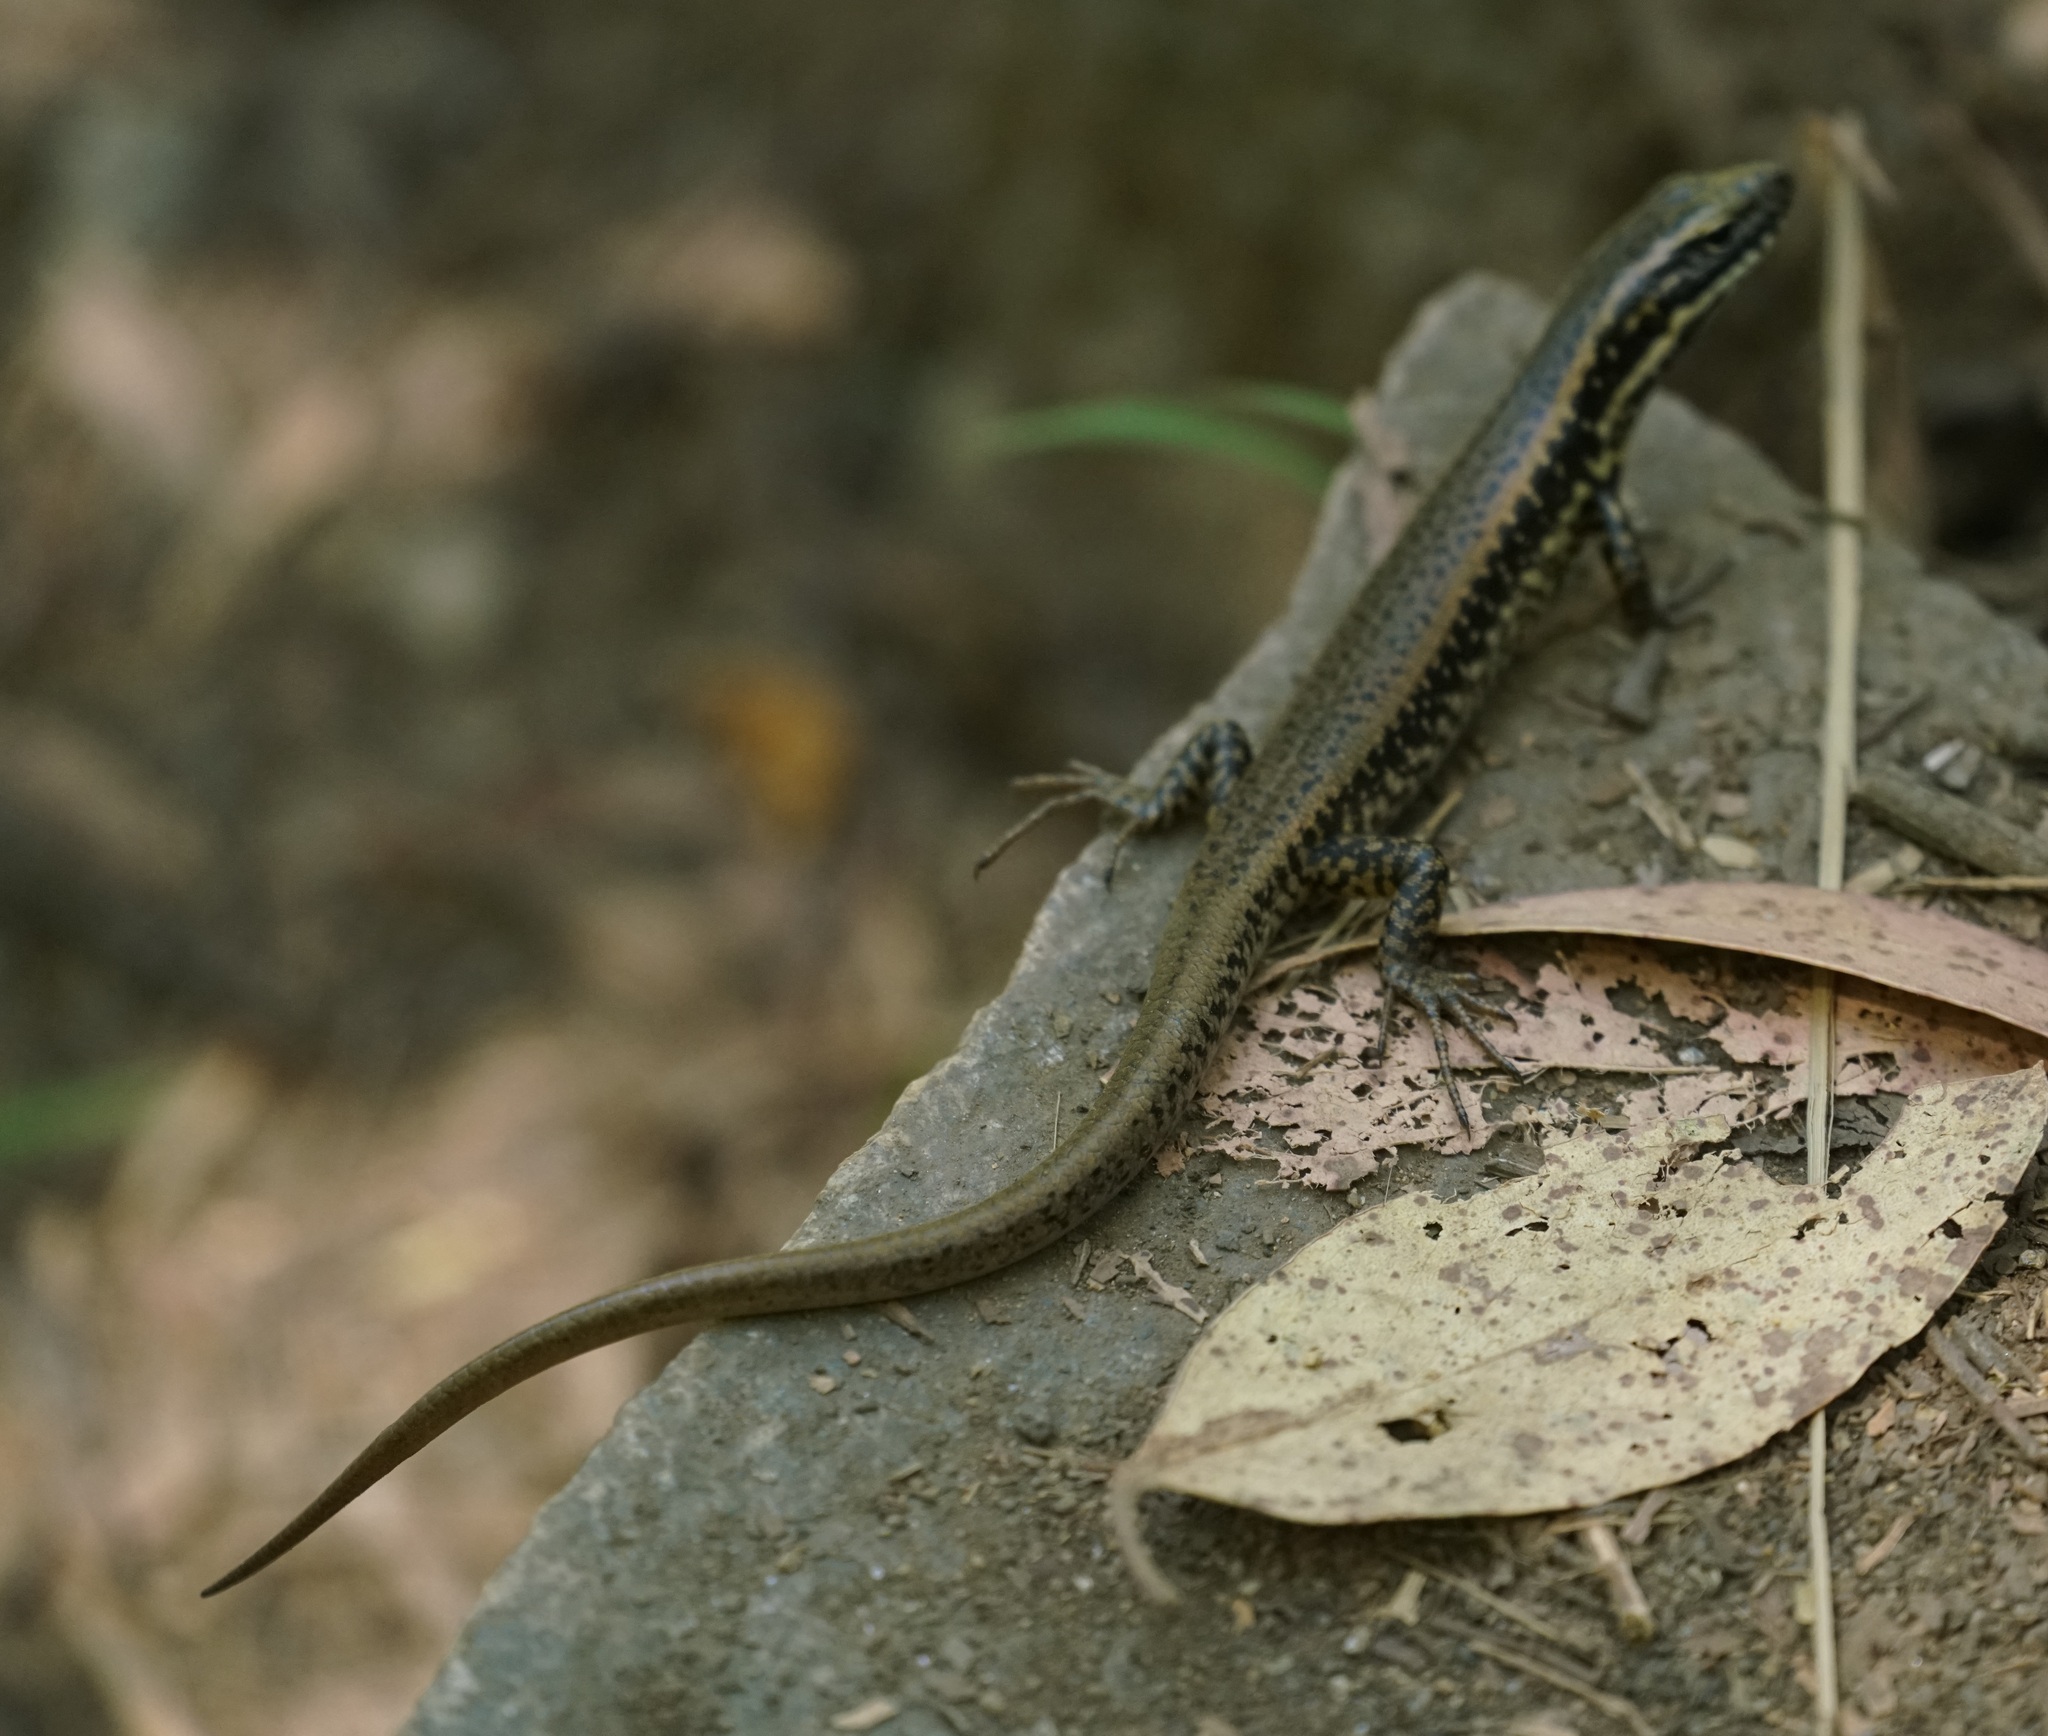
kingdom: Animalia
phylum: Chordata
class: Squamata
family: Scincidae
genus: Eulamprus
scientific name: Eulamprus heatwolei
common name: Warm-temperate water-skink
